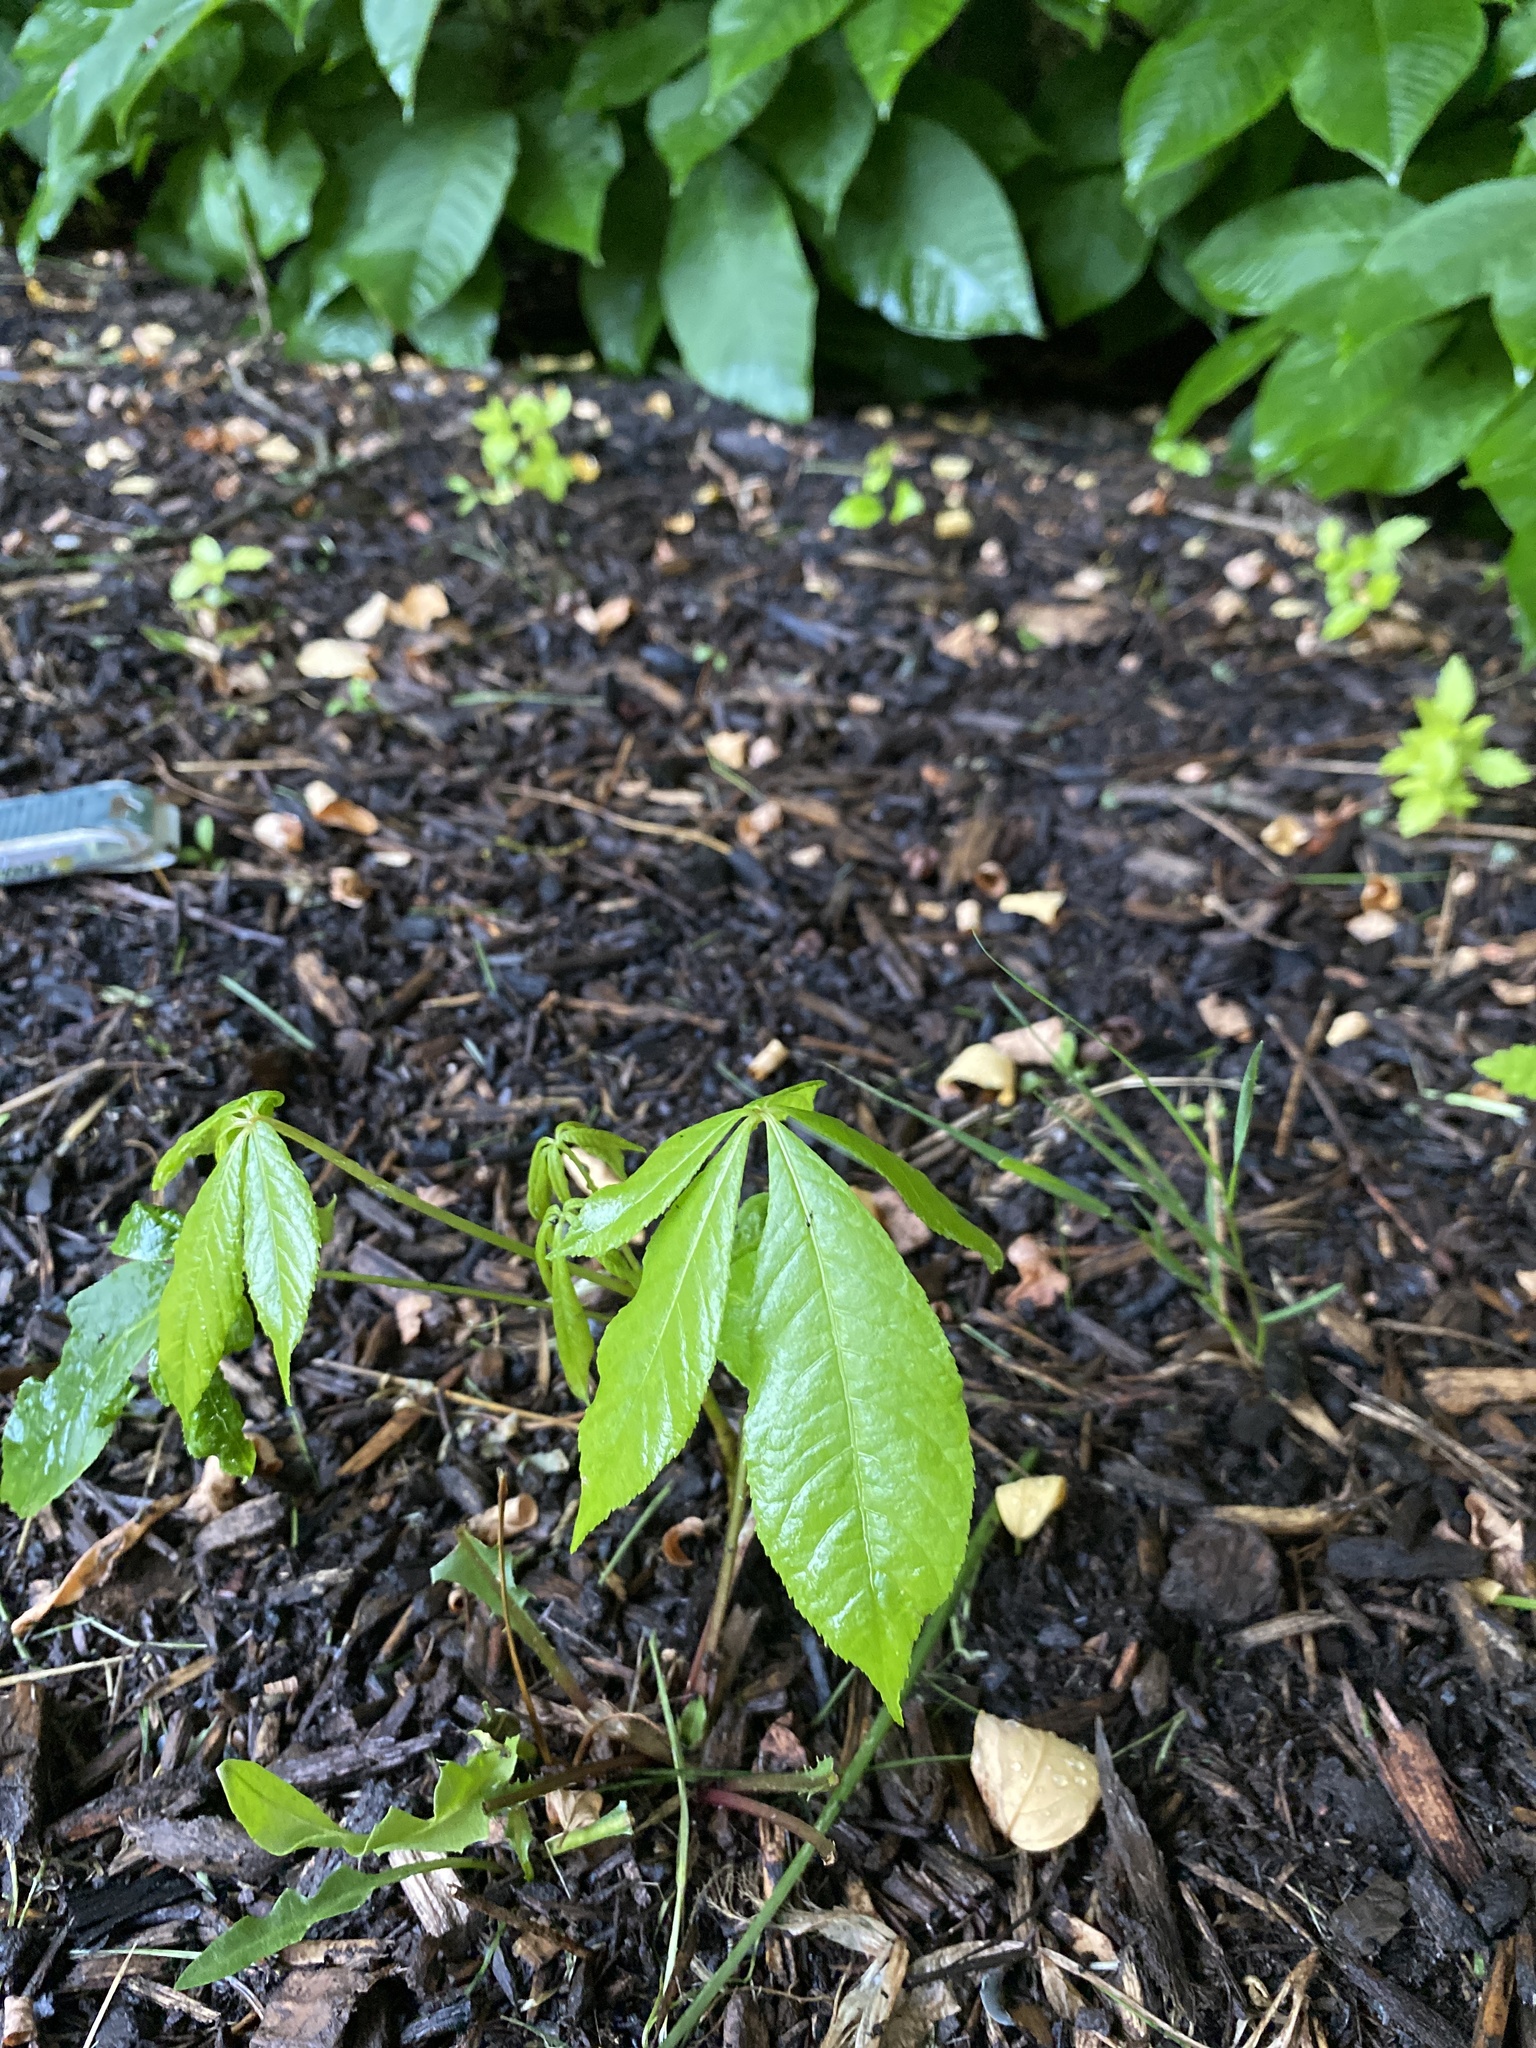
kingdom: Plantae
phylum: Tracheophyta
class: Magnoliopsida
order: Sapindales
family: Sapindaceae
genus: Aesculus
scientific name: Aesculus parviflora
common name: Bottlebrush buckeye
